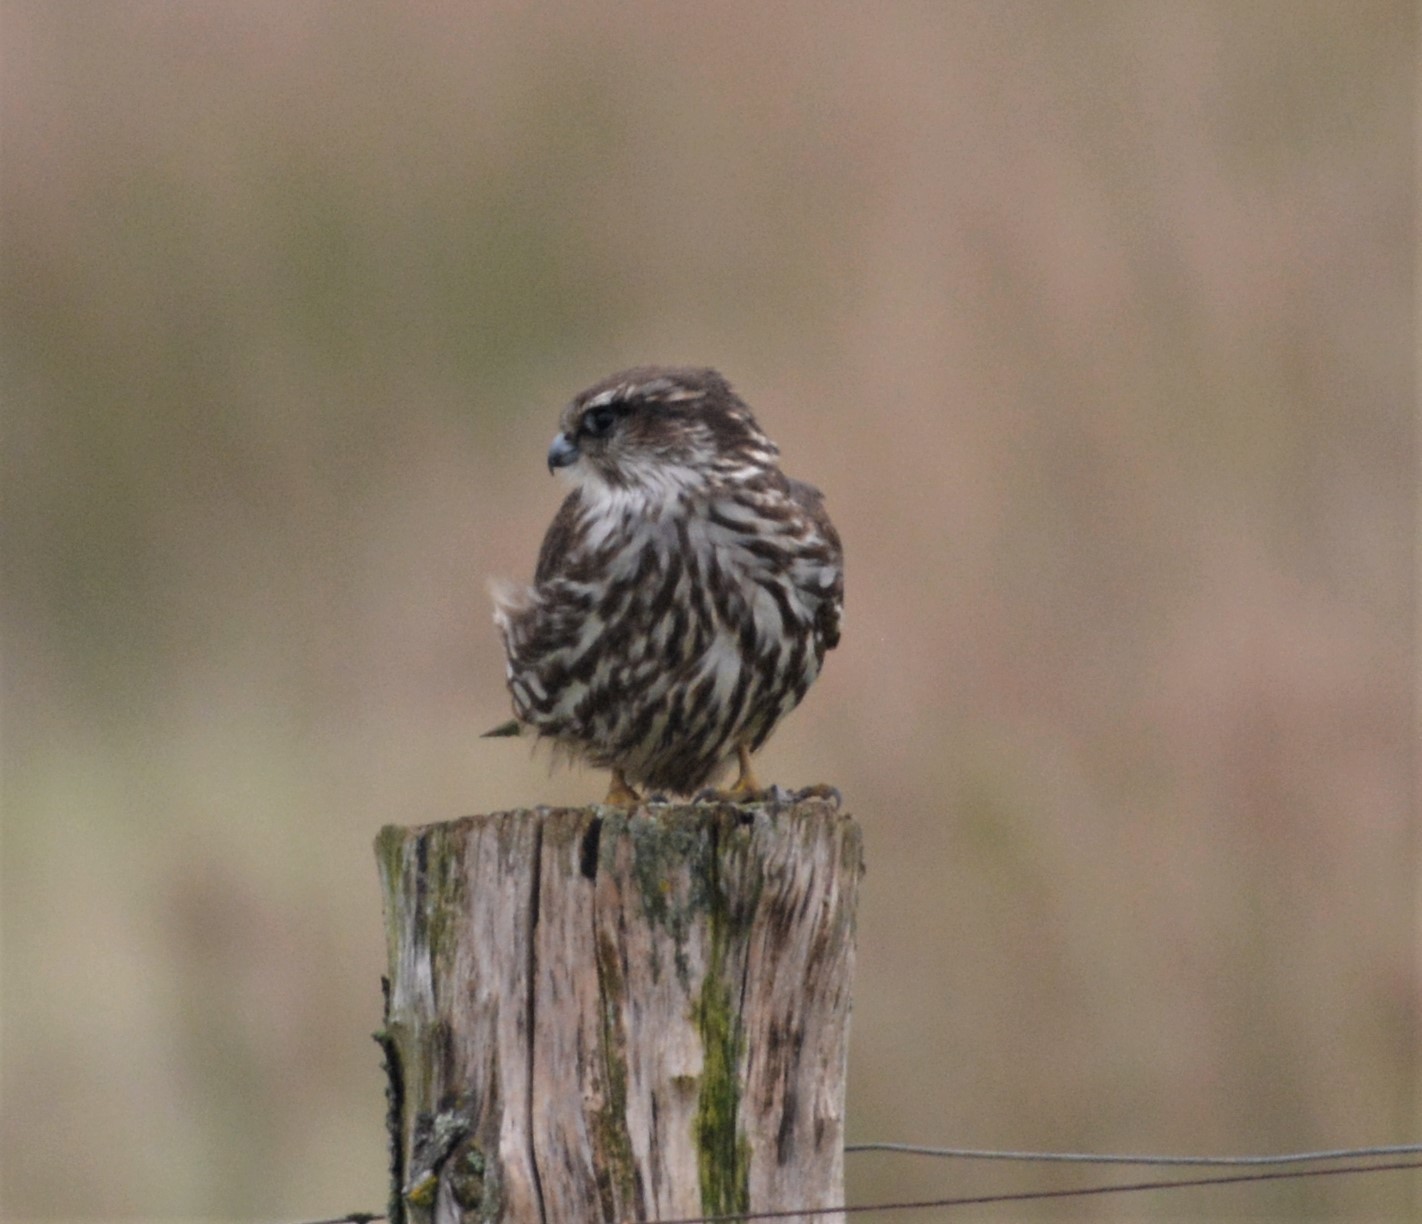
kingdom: Animalia
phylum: Chordata
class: Aves
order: Falconiformes
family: Falconidae
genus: Falco
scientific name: Falco columbarius
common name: Merlin
